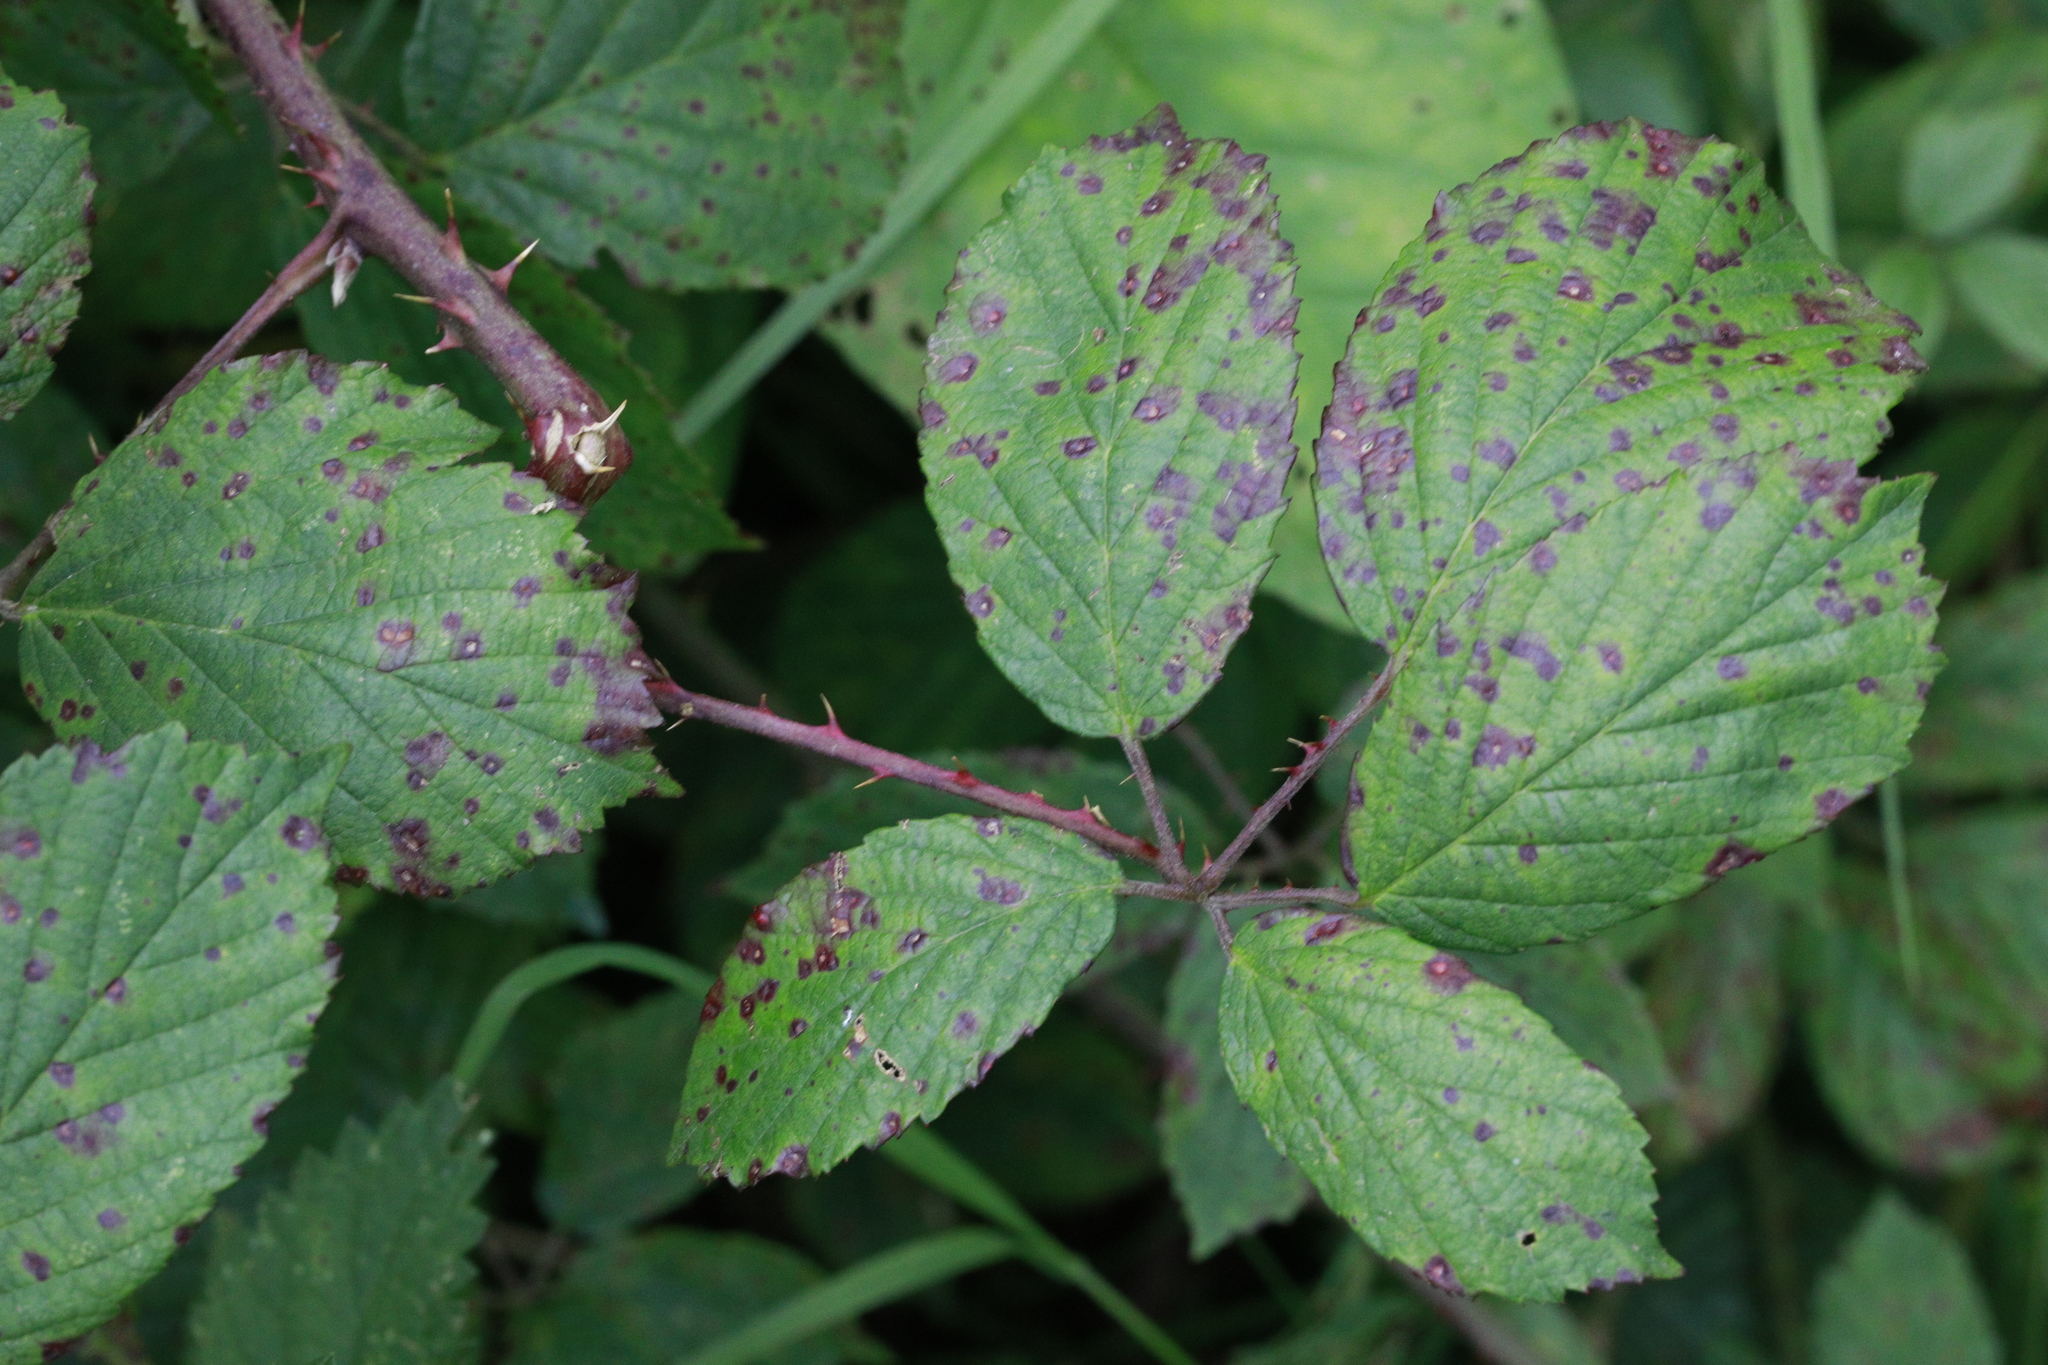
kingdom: Fungi
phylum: Basidiomycota
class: Pucciniomycetes
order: Pucciniales
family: Phragmidiaceae
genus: Phragmidium
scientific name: Phragmidium violaceum
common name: Violet bramble rust
